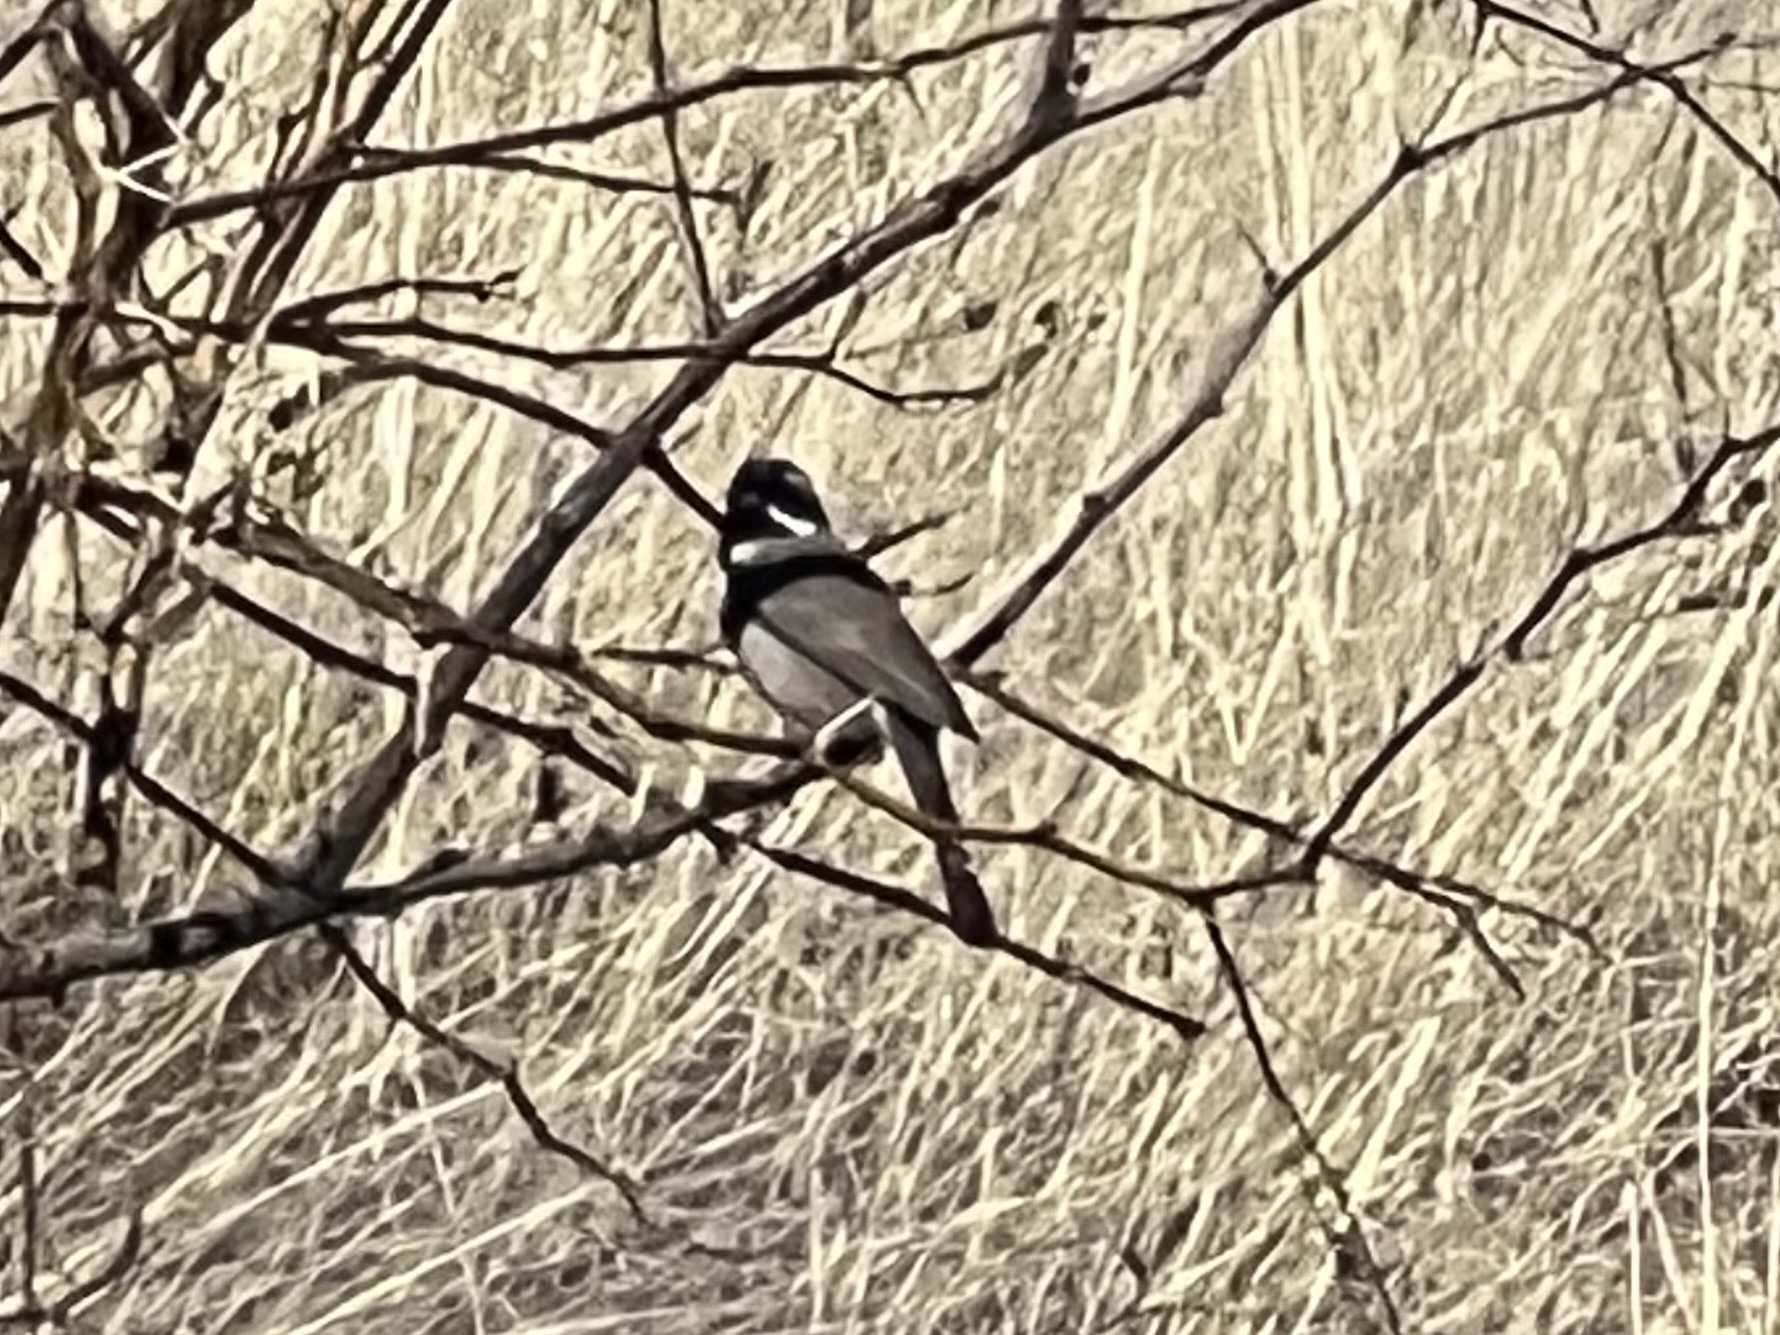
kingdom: Animalia
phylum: Chordata
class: Aves
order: Passeriformes
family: Passerellidae
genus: Amphispiza
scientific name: Amphispiza bilineata
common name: Black-throated sparrow
